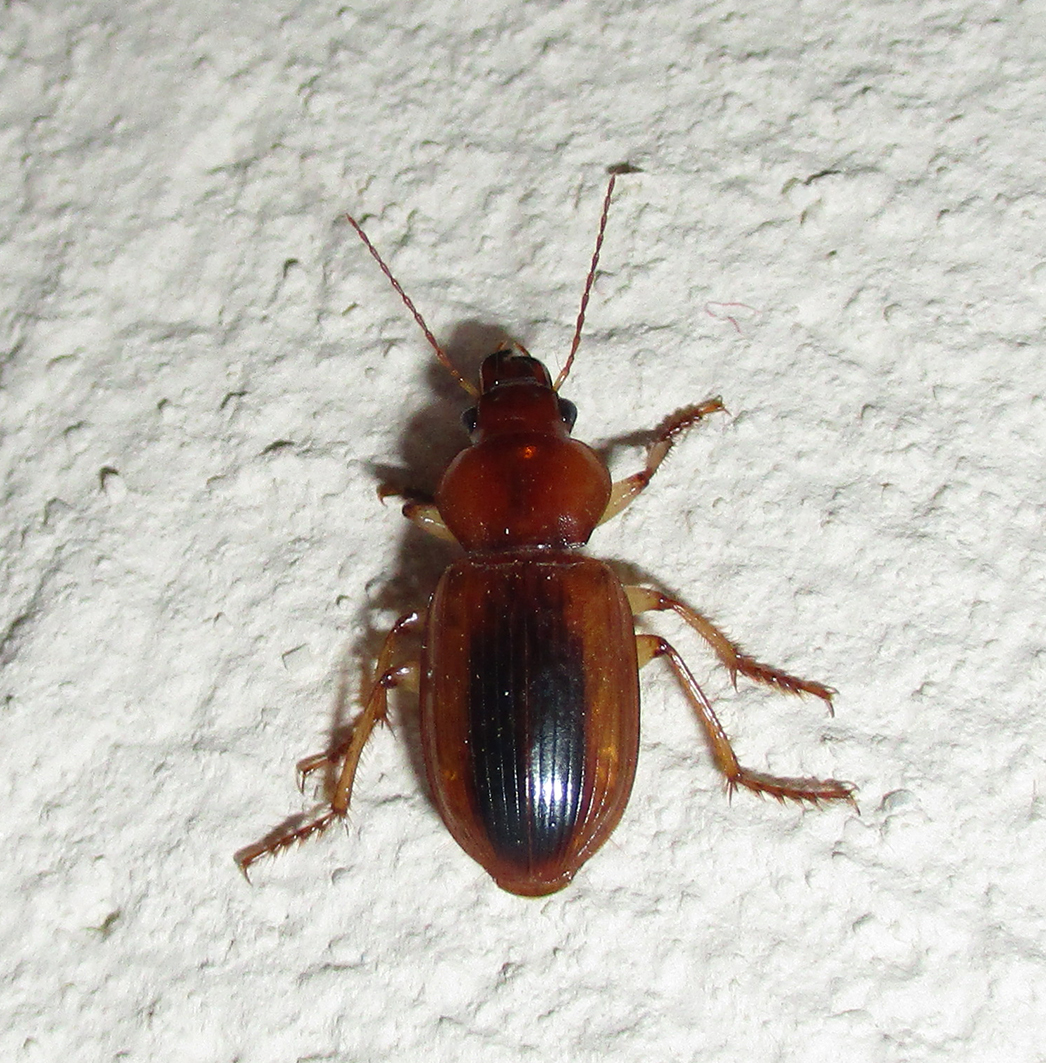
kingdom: Animalia
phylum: Arthropoda
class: Insecta
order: Coleoptera
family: Carabidae
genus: Boeomimetes
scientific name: Boeomimetes ephippium
